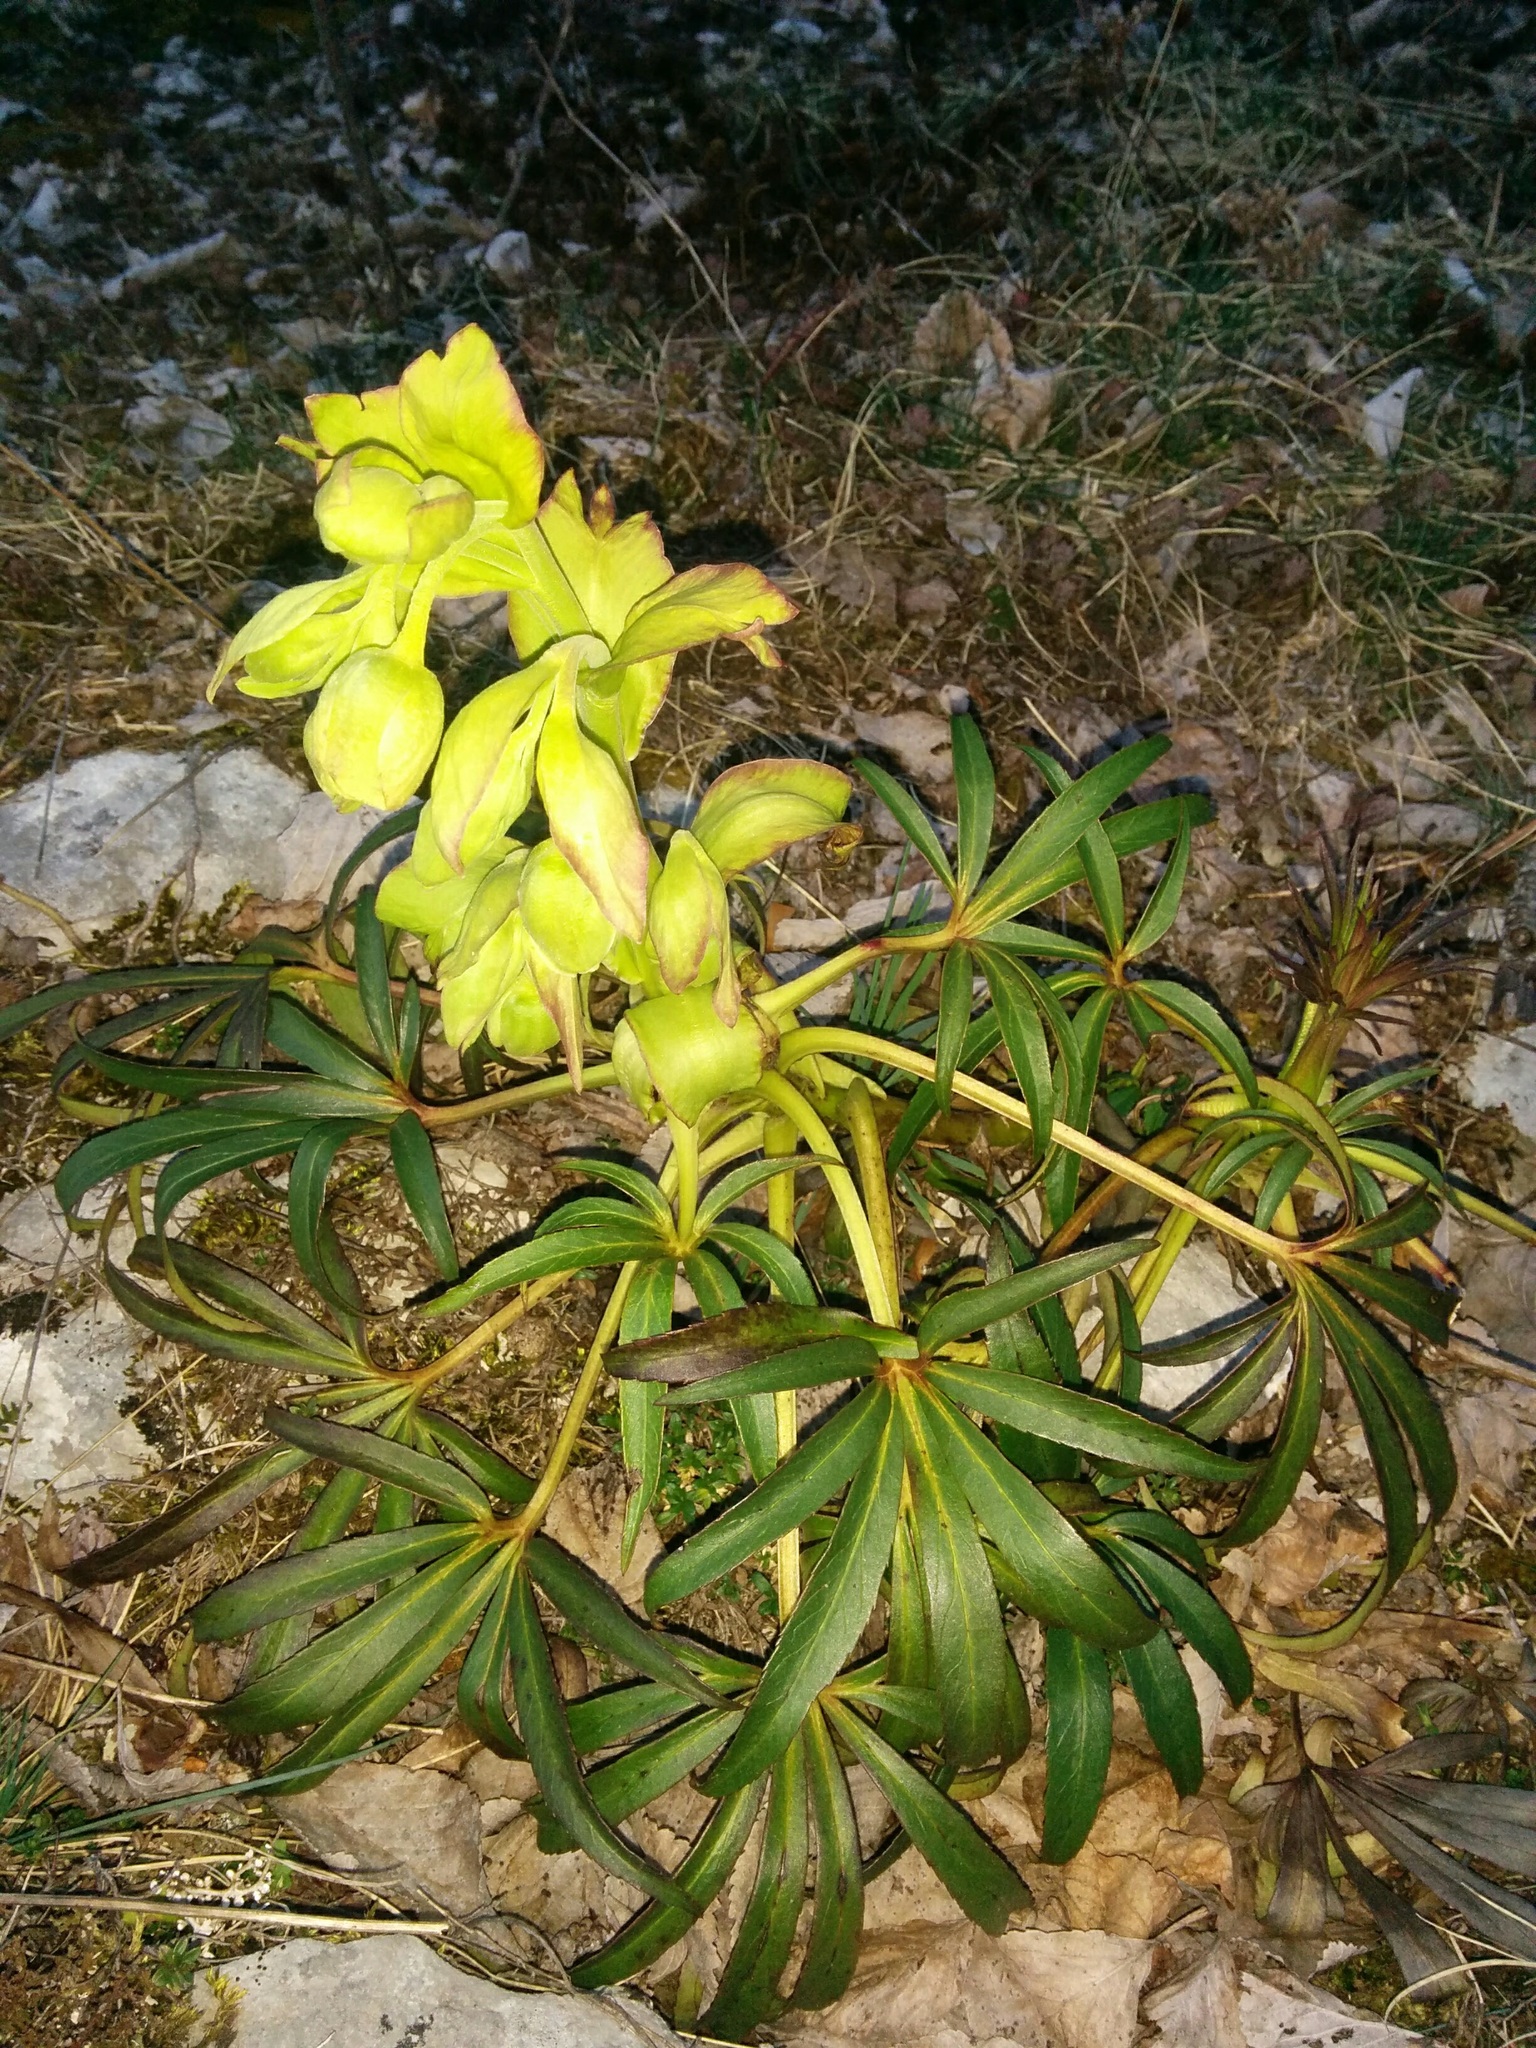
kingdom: Plantae
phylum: Tracheophyta
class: Magnoliopsida
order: Ranunculales
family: Ranunculaceae
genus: Helleborus
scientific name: Helleborus foetidus
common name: Stinking hellebore
